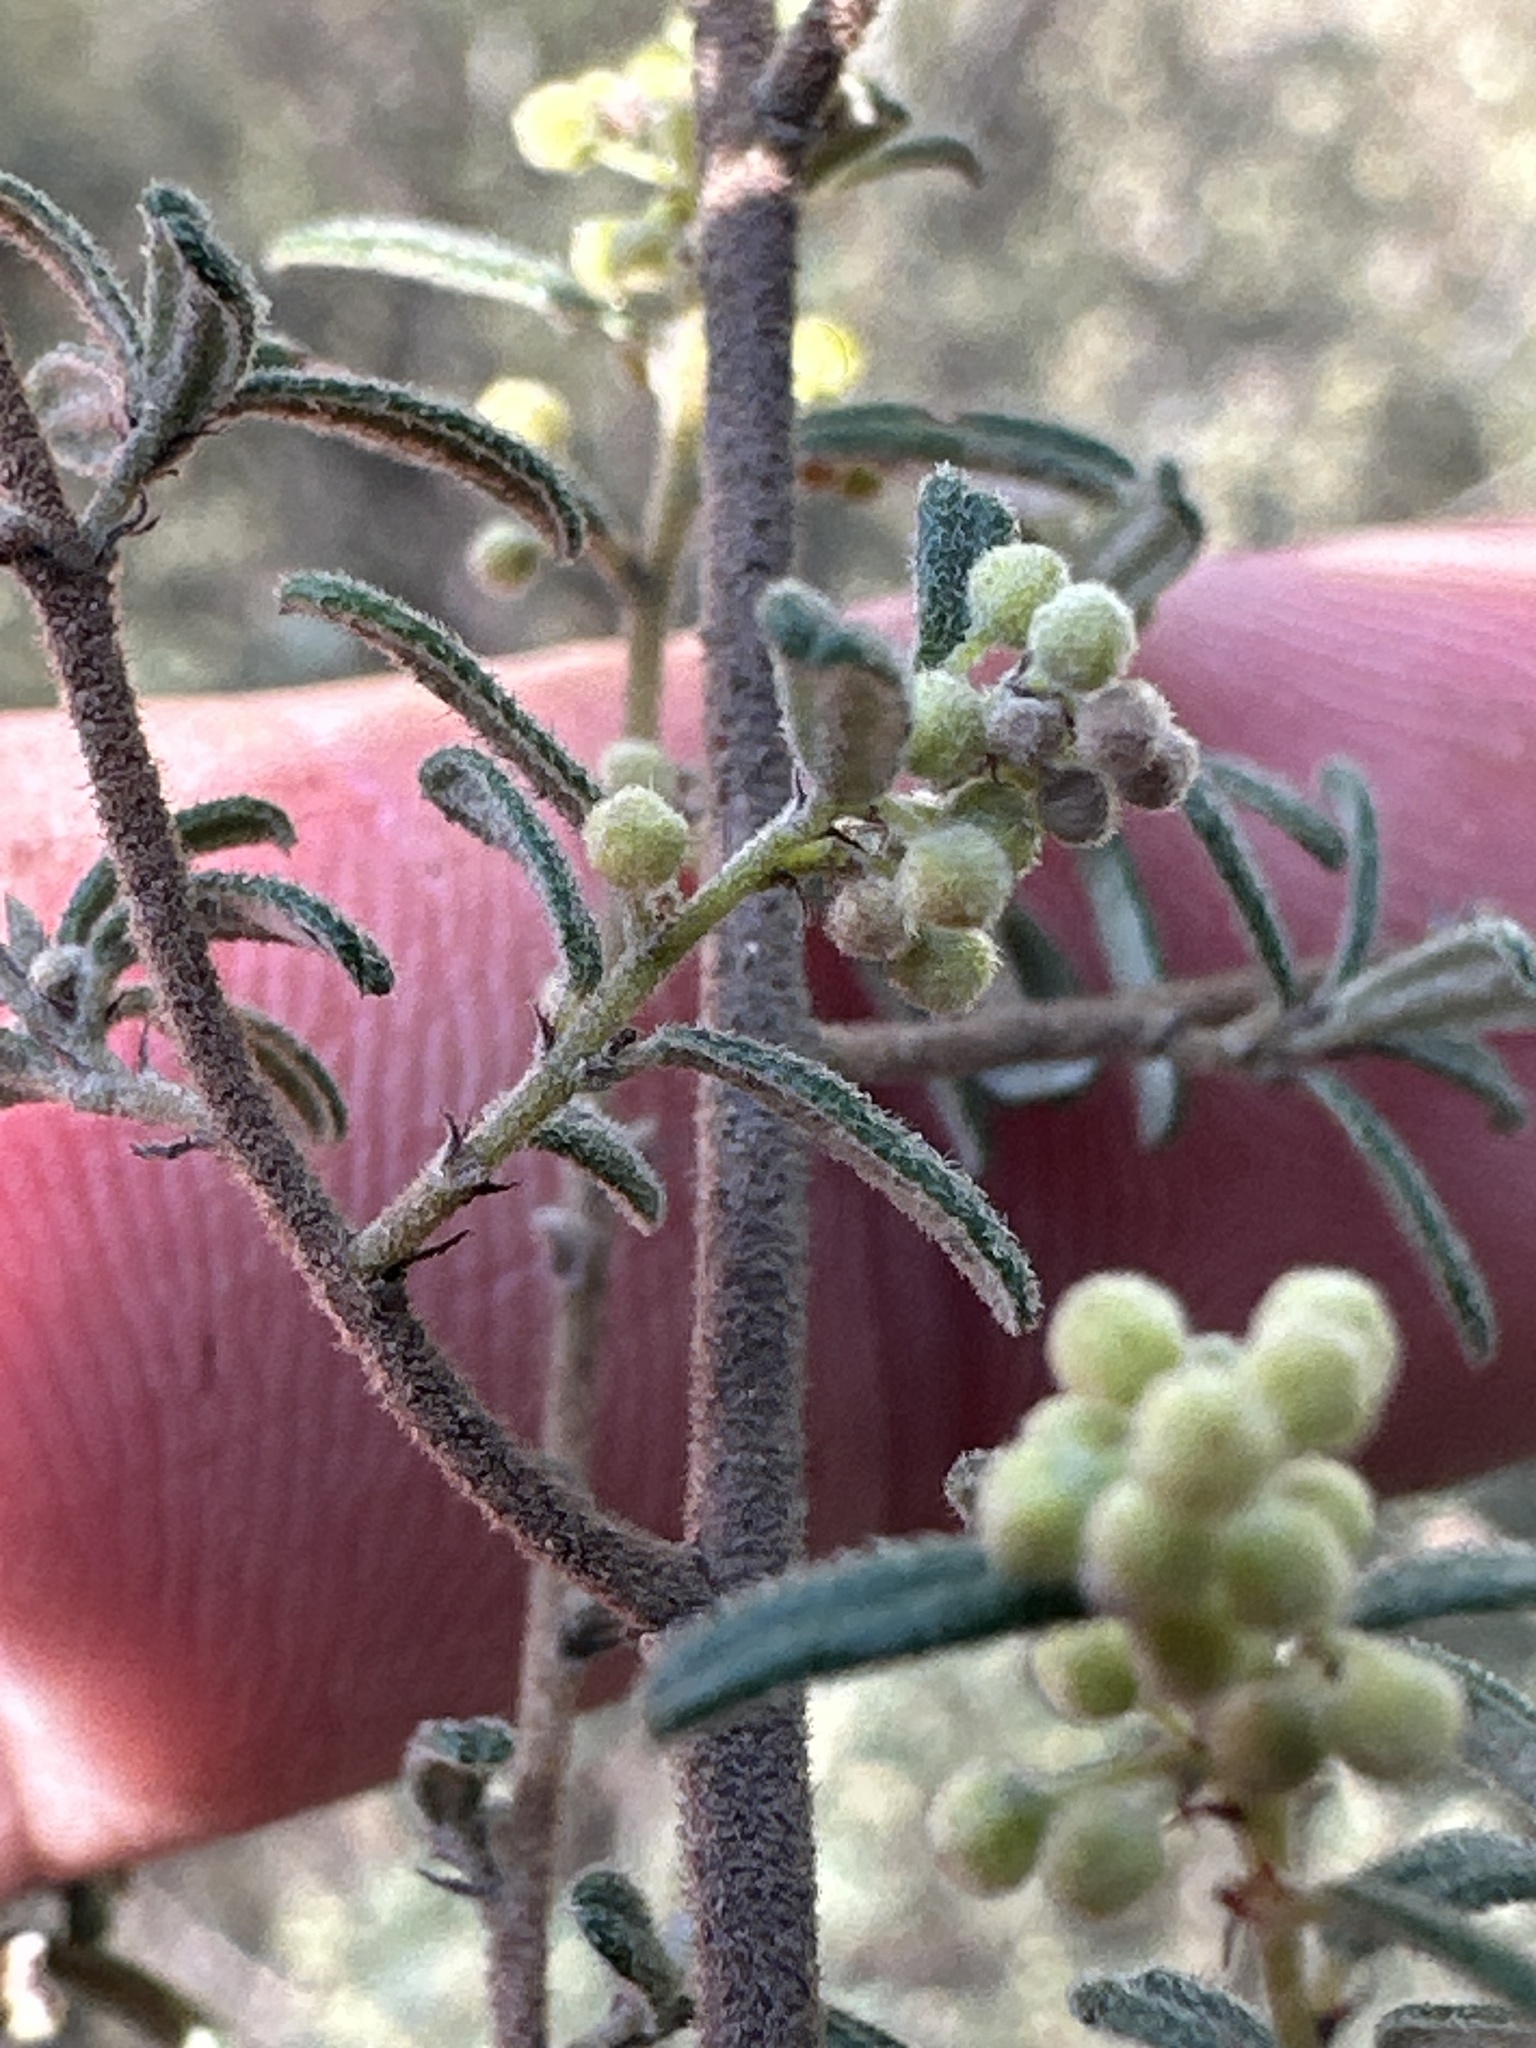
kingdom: Plantae
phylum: Tracheophyta
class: Magnoliopsida
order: Rosales
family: Rhamnaceae
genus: Pomaderris
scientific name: Pomaderris angustifolia
